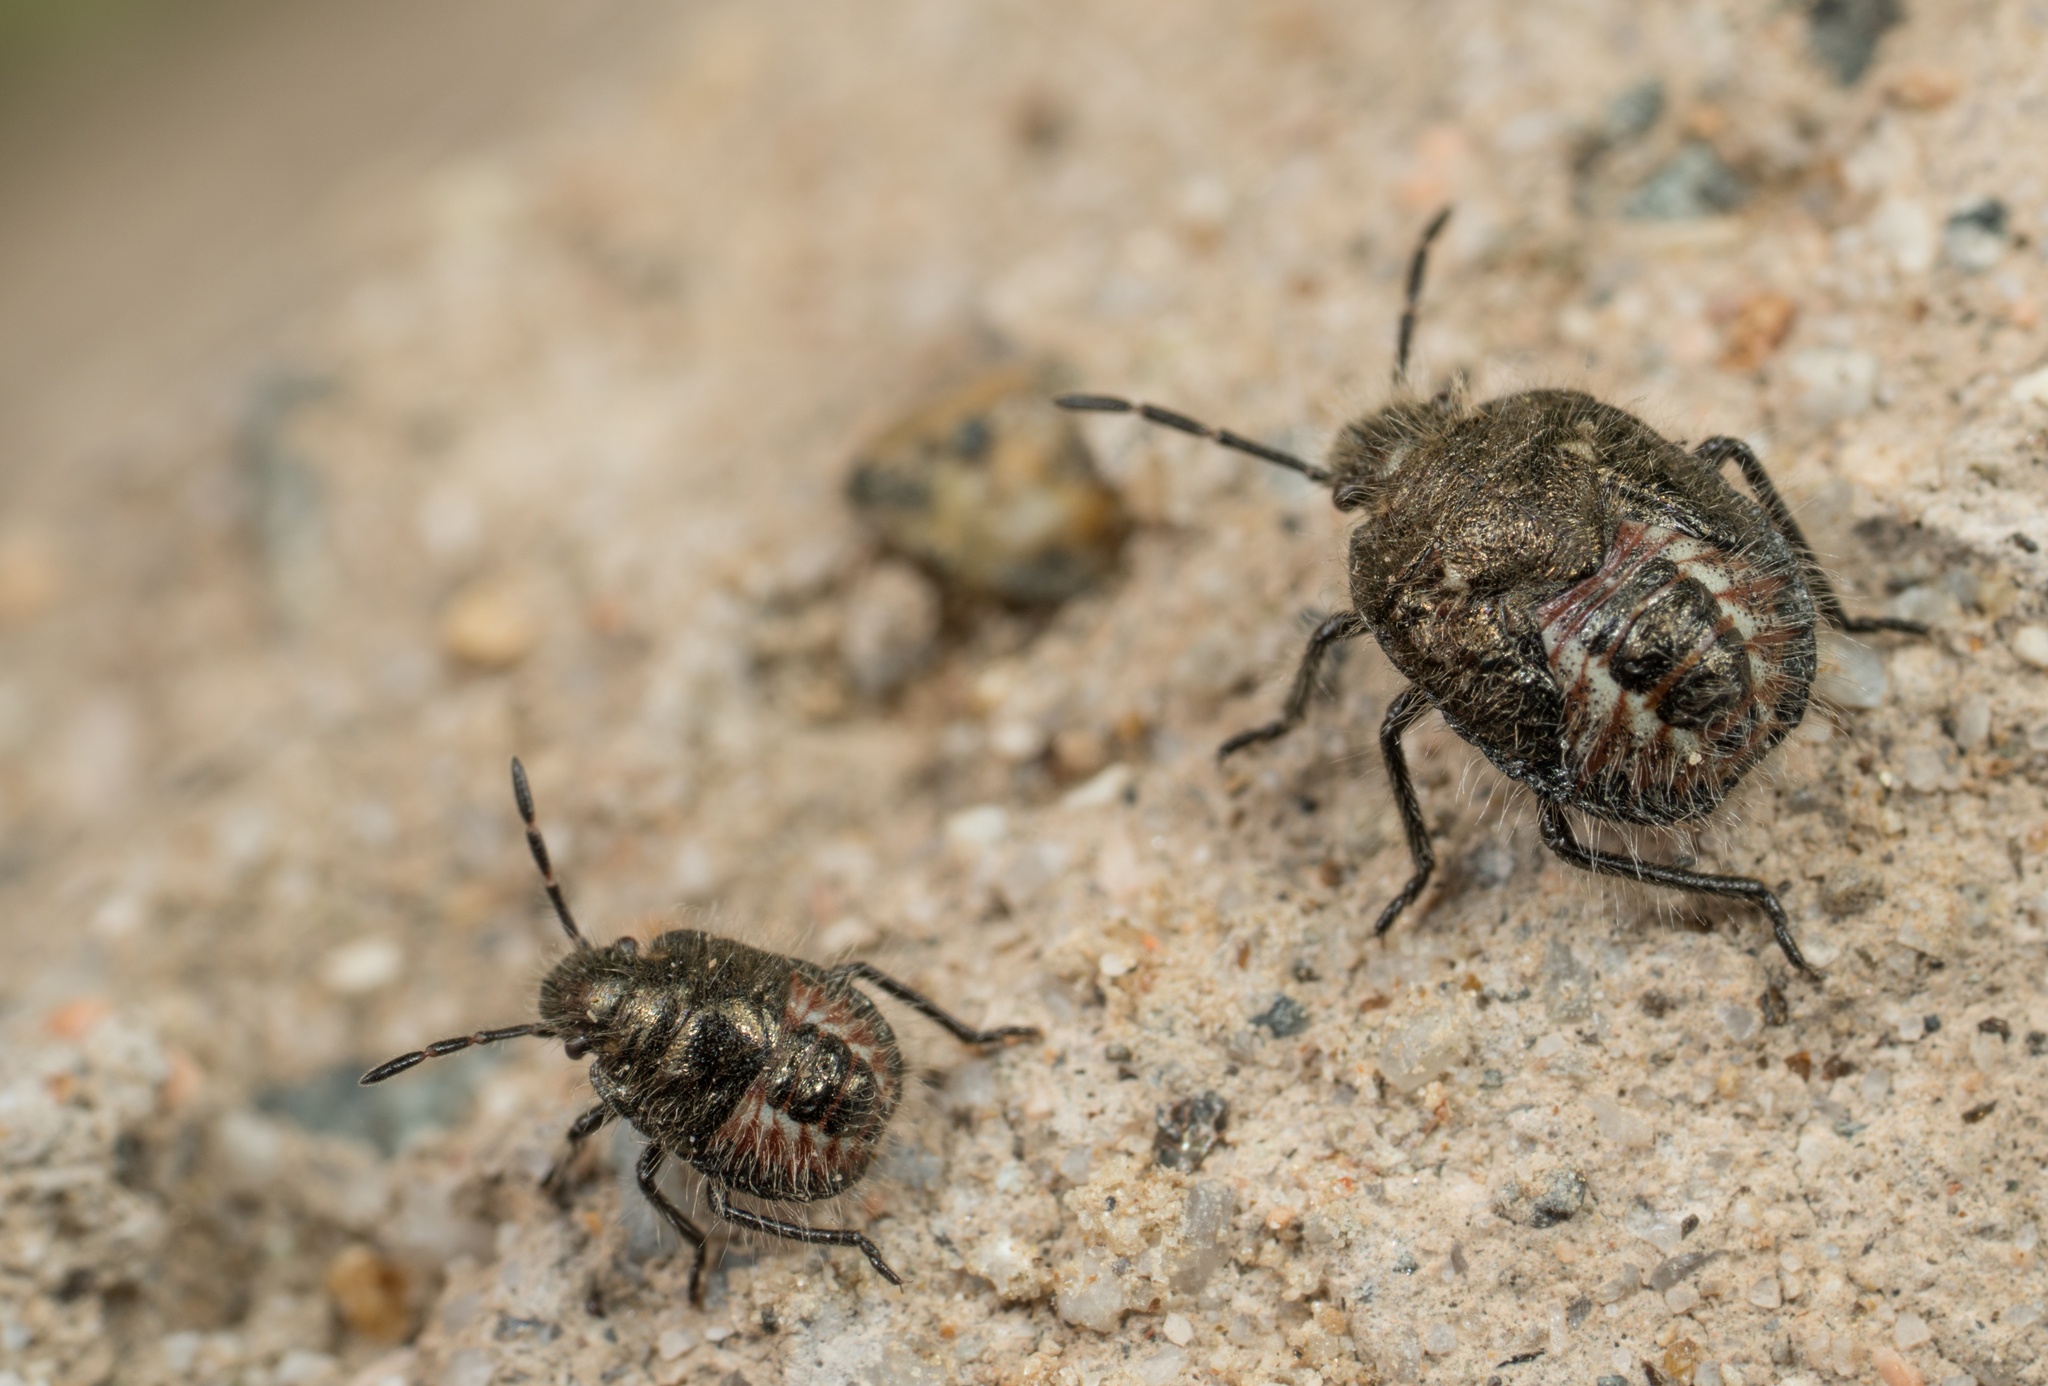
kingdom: Animalia
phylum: Arthropoda
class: Insecta
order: Hemiptera
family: Pentatomidae
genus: Agonoscelis
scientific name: Agonoscelis puberula
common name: African cluster bug
